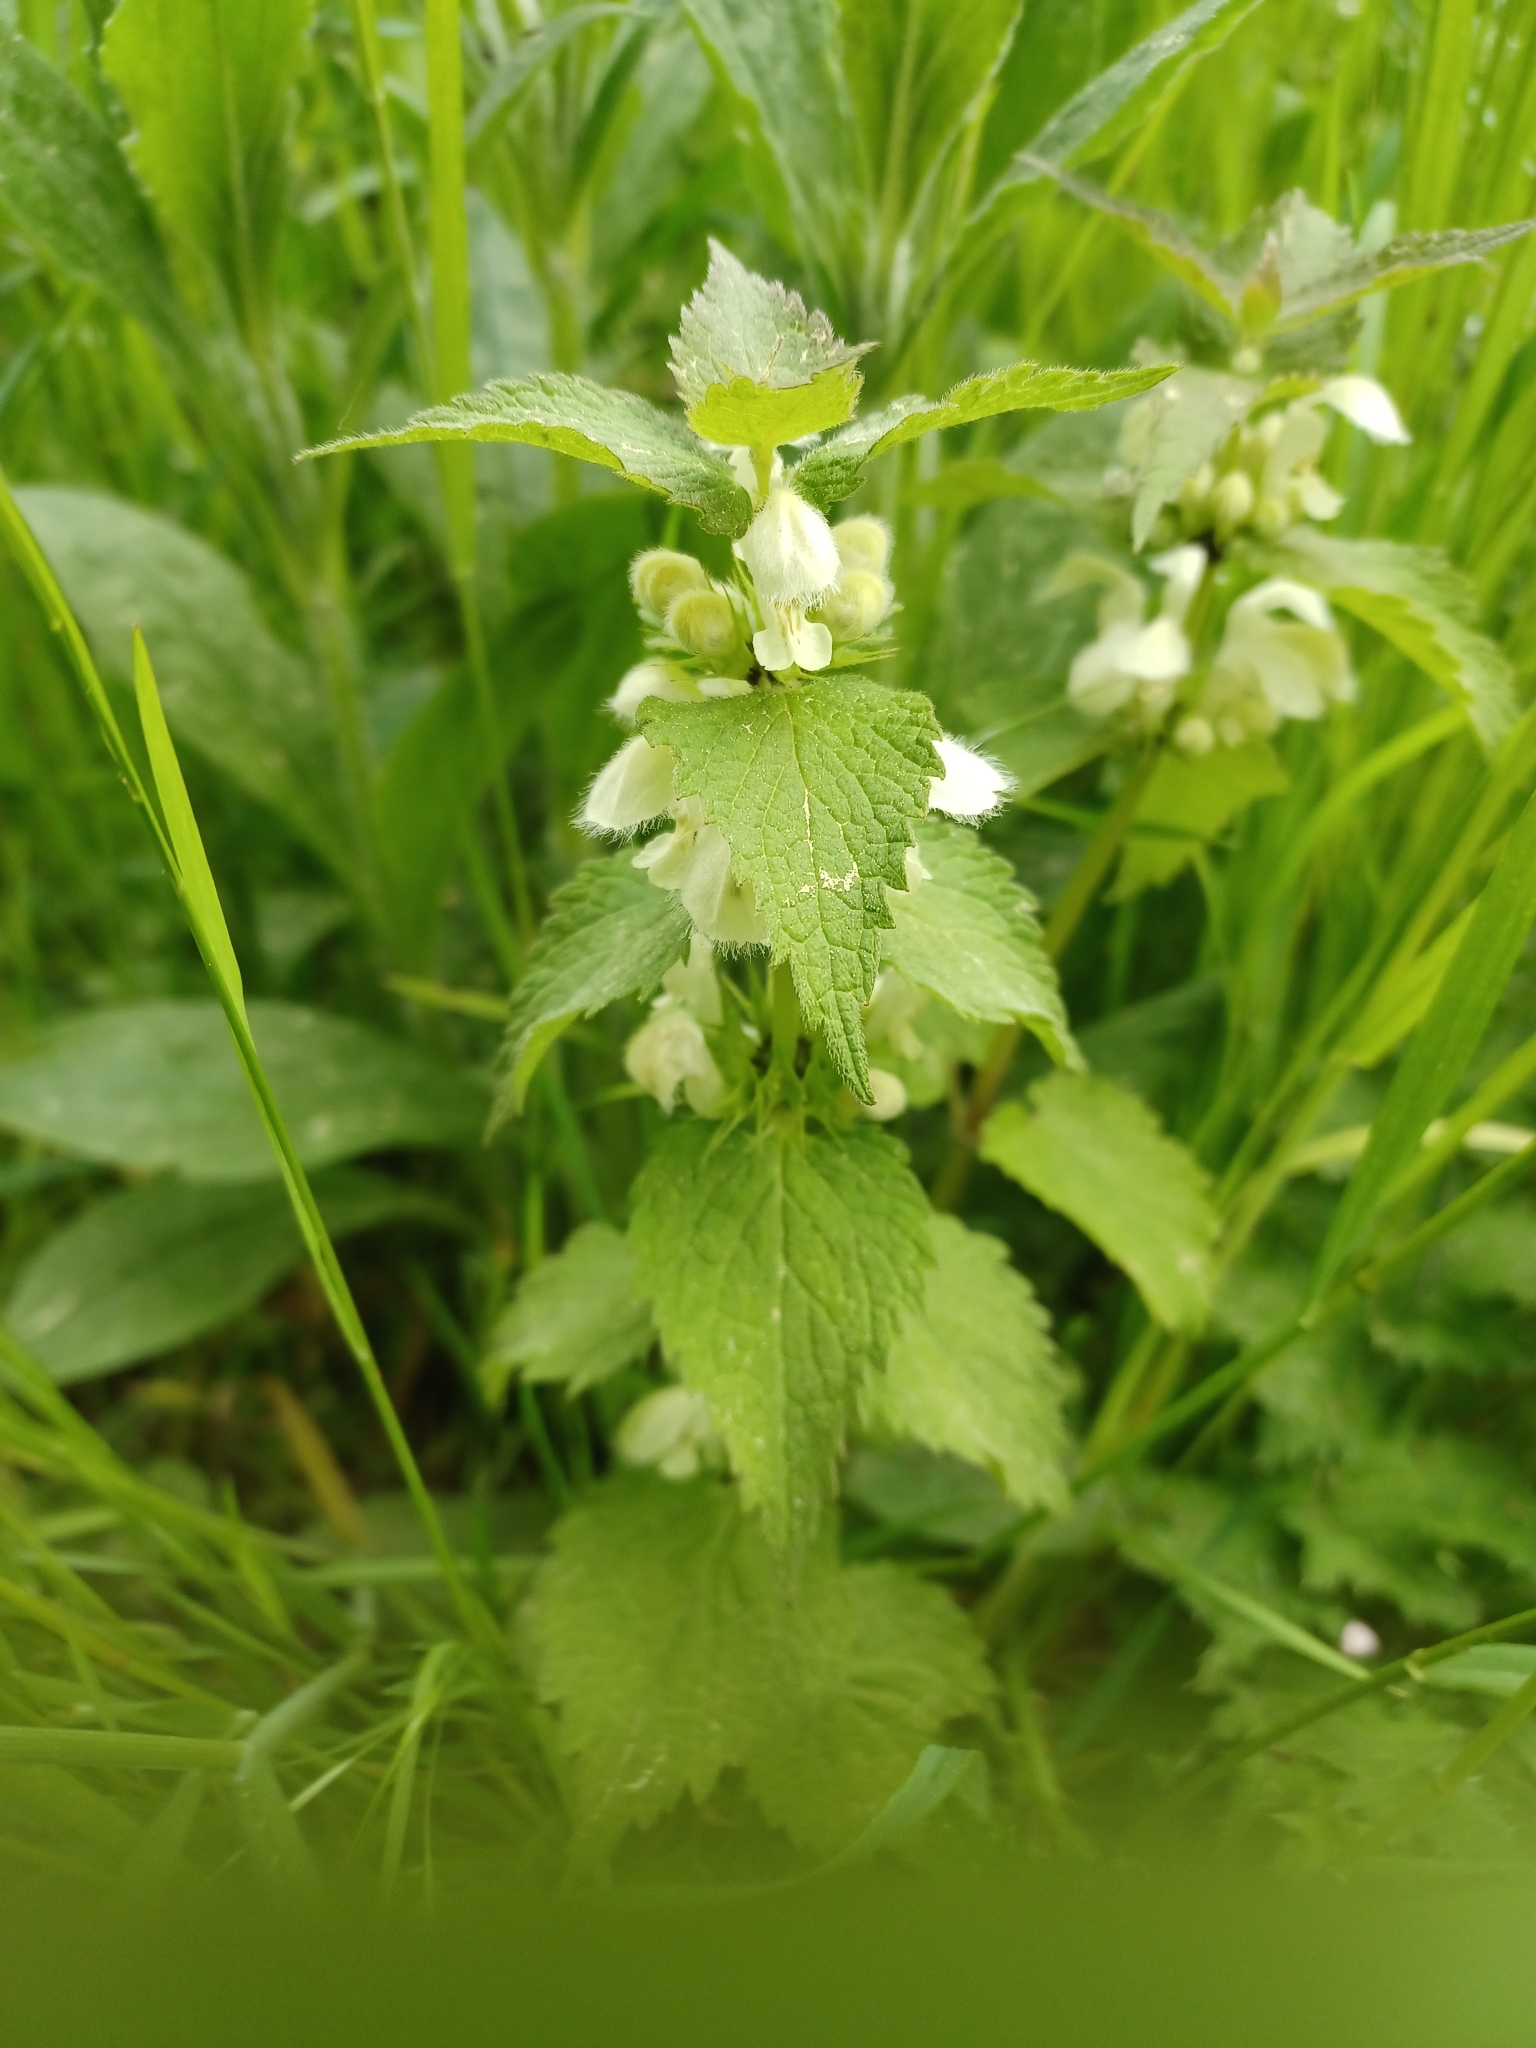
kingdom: Plantae
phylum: Tracheophyta
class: Magnoliopsida
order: Lamiales
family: Lamiaceae
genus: Lamium
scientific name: Lamium album
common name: White dead-nettle
